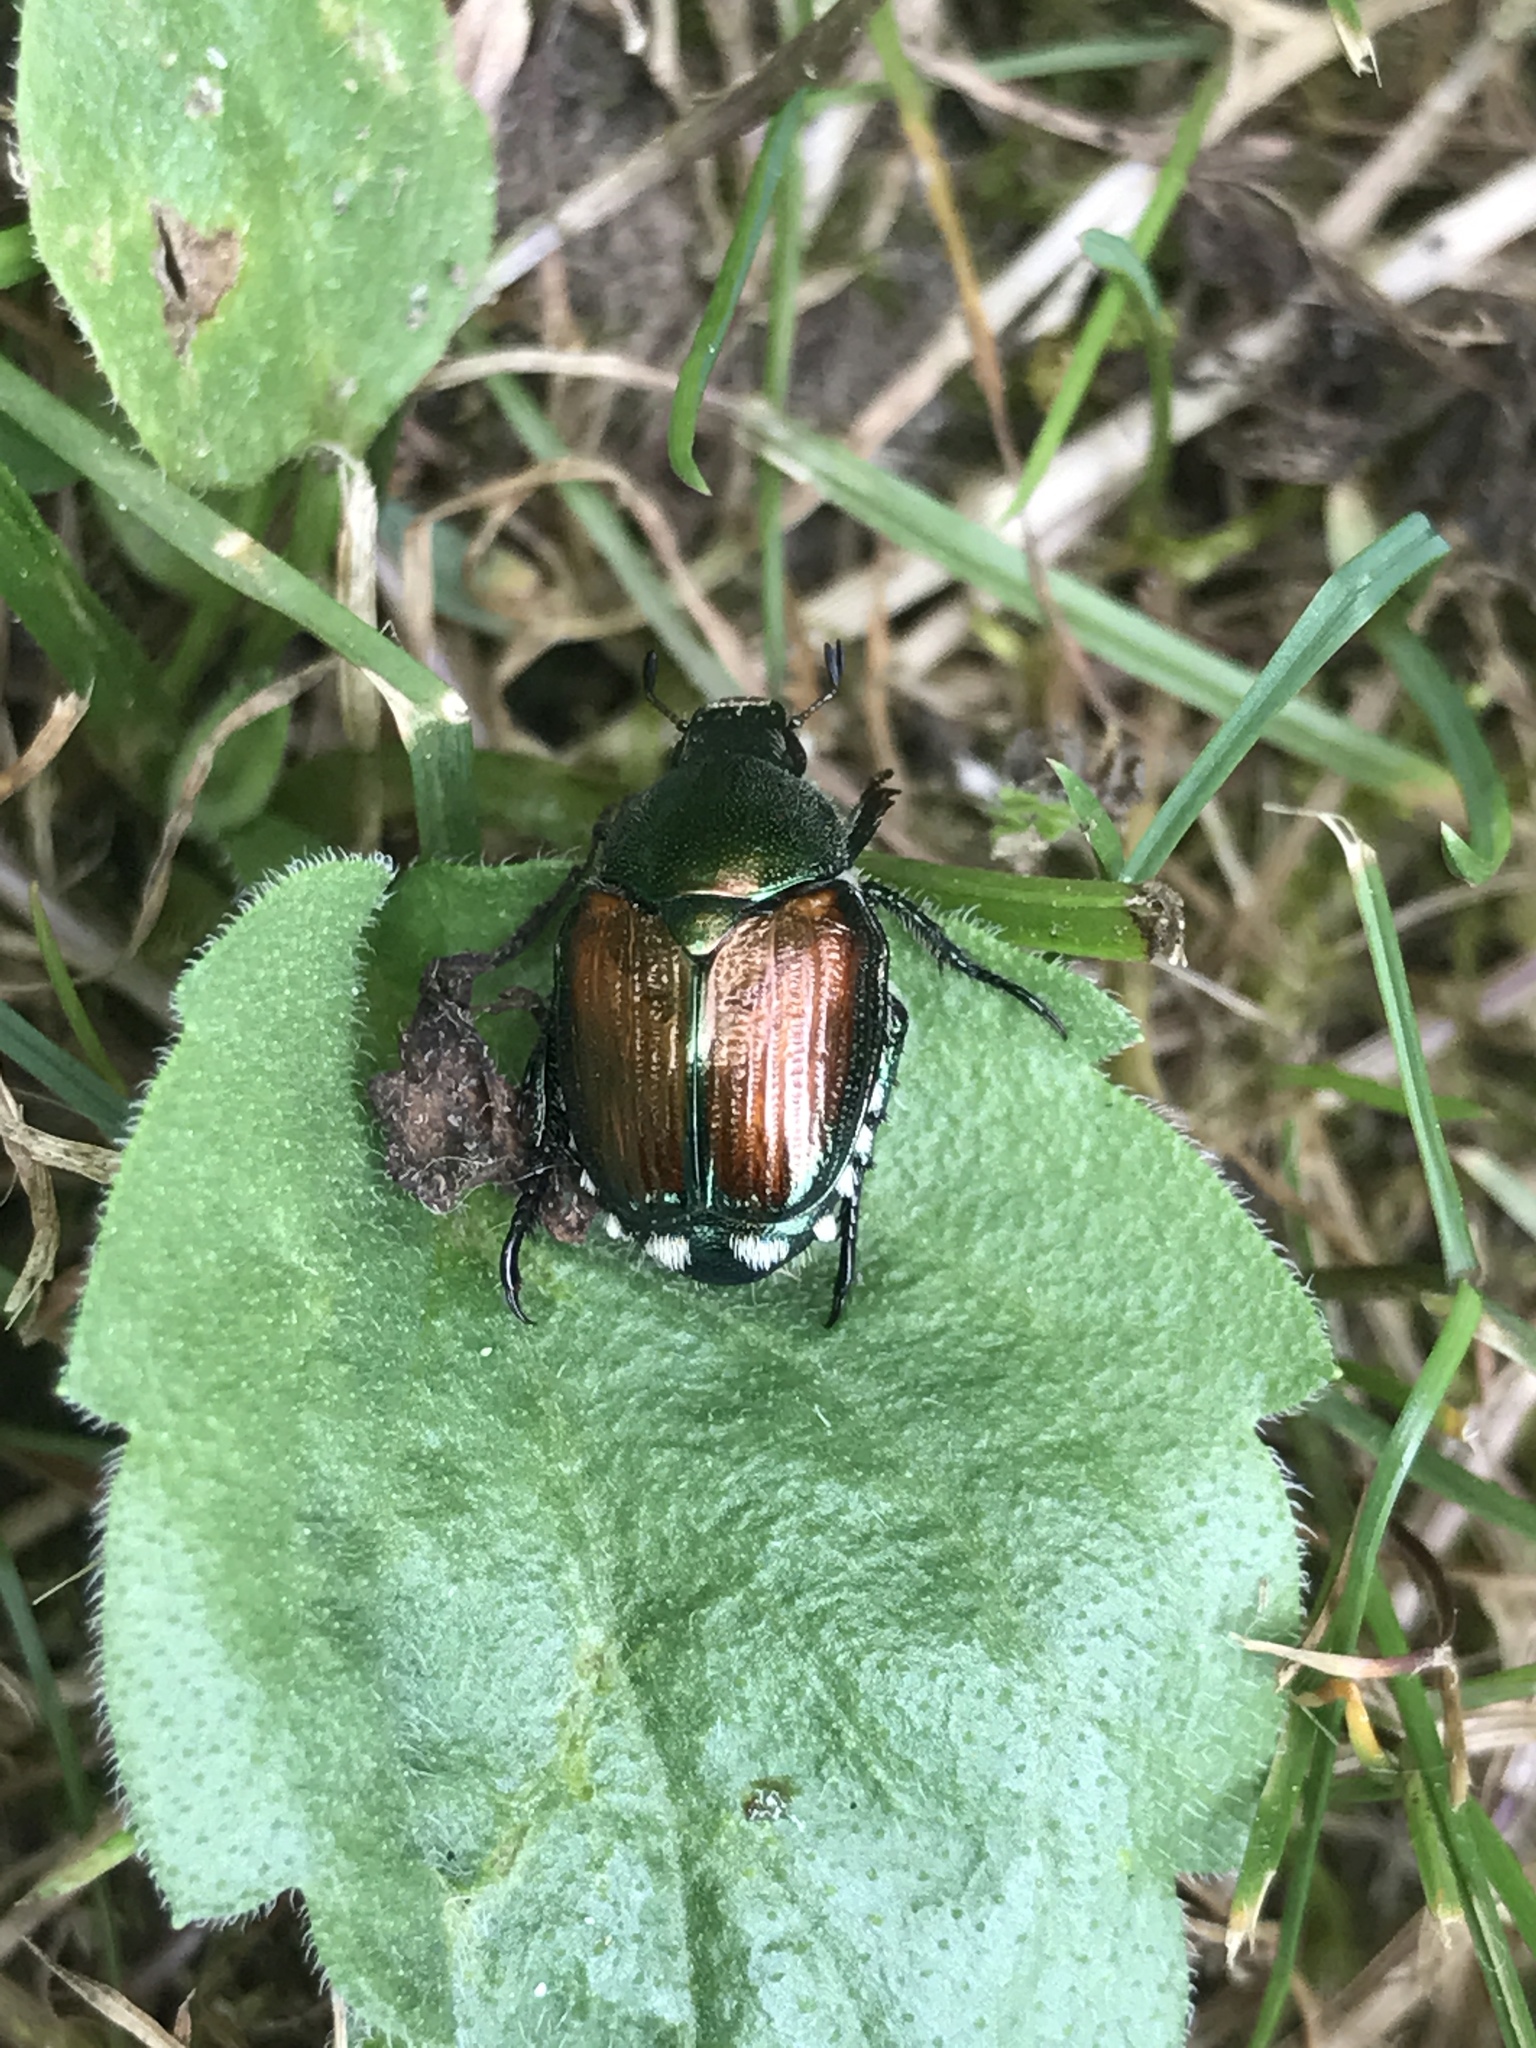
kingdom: Animalia
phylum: Arthropoda
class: Insecta
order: Coleoptera
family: Scarabaeidae
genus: Popillia
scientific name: Popillia japonica
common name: Japanese beetle
